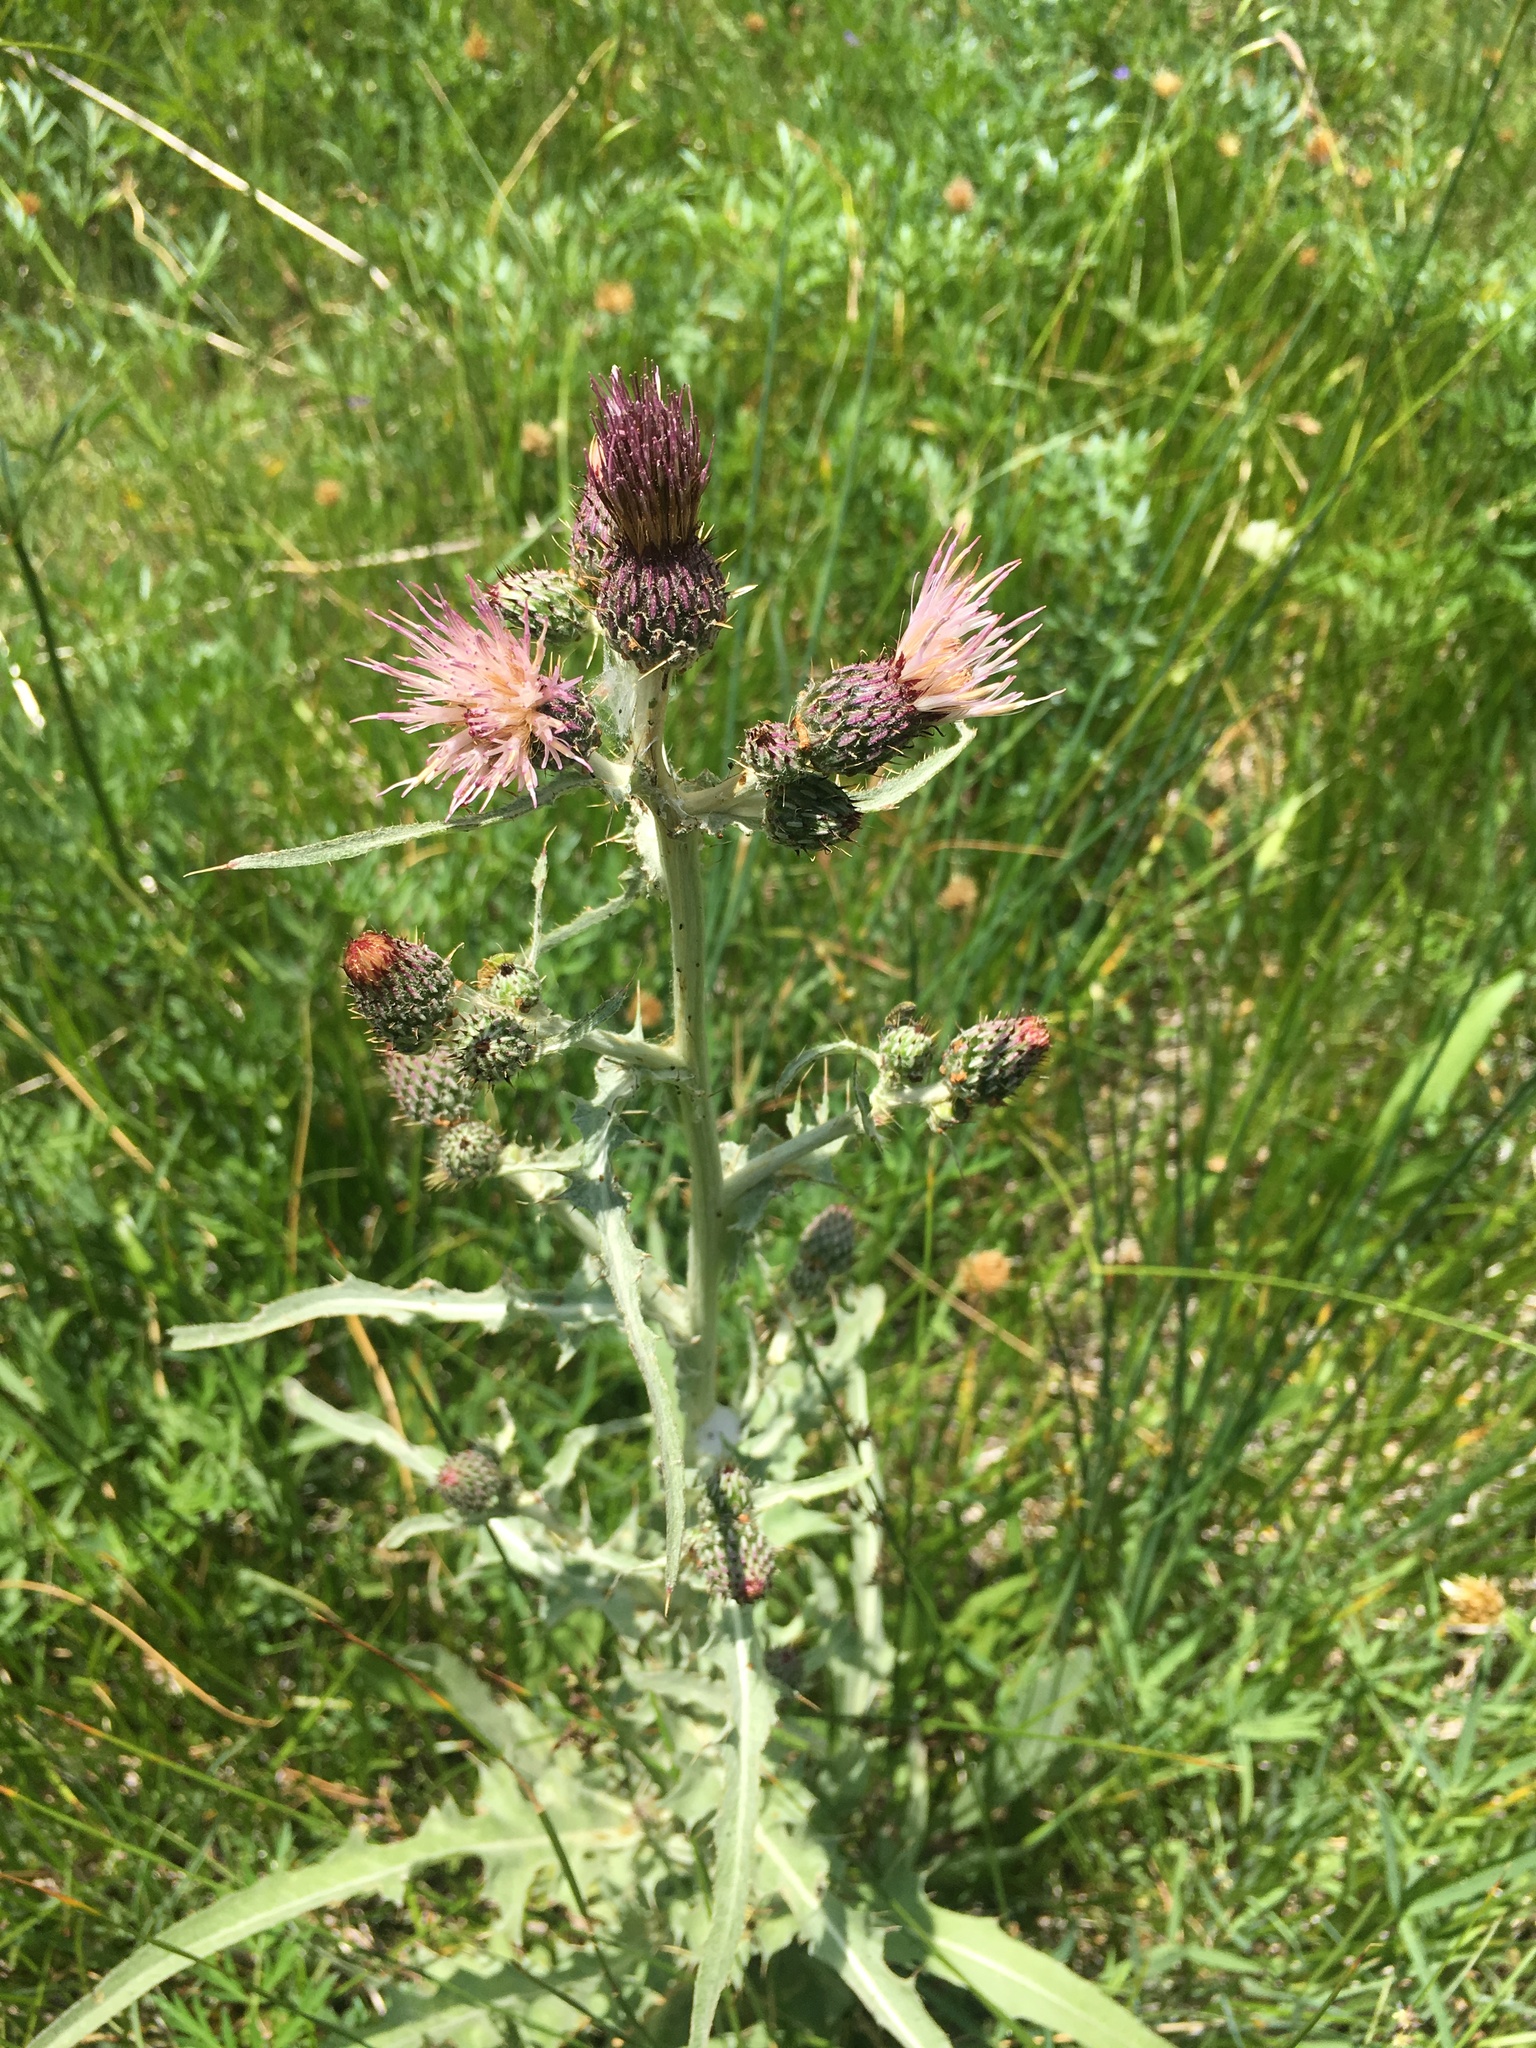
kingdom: Plantae
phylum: Tracheophyta
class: Magnoliopsida
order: Asterales
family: Asteraceae
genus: Cirsium
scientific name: Cirsium douglasii
